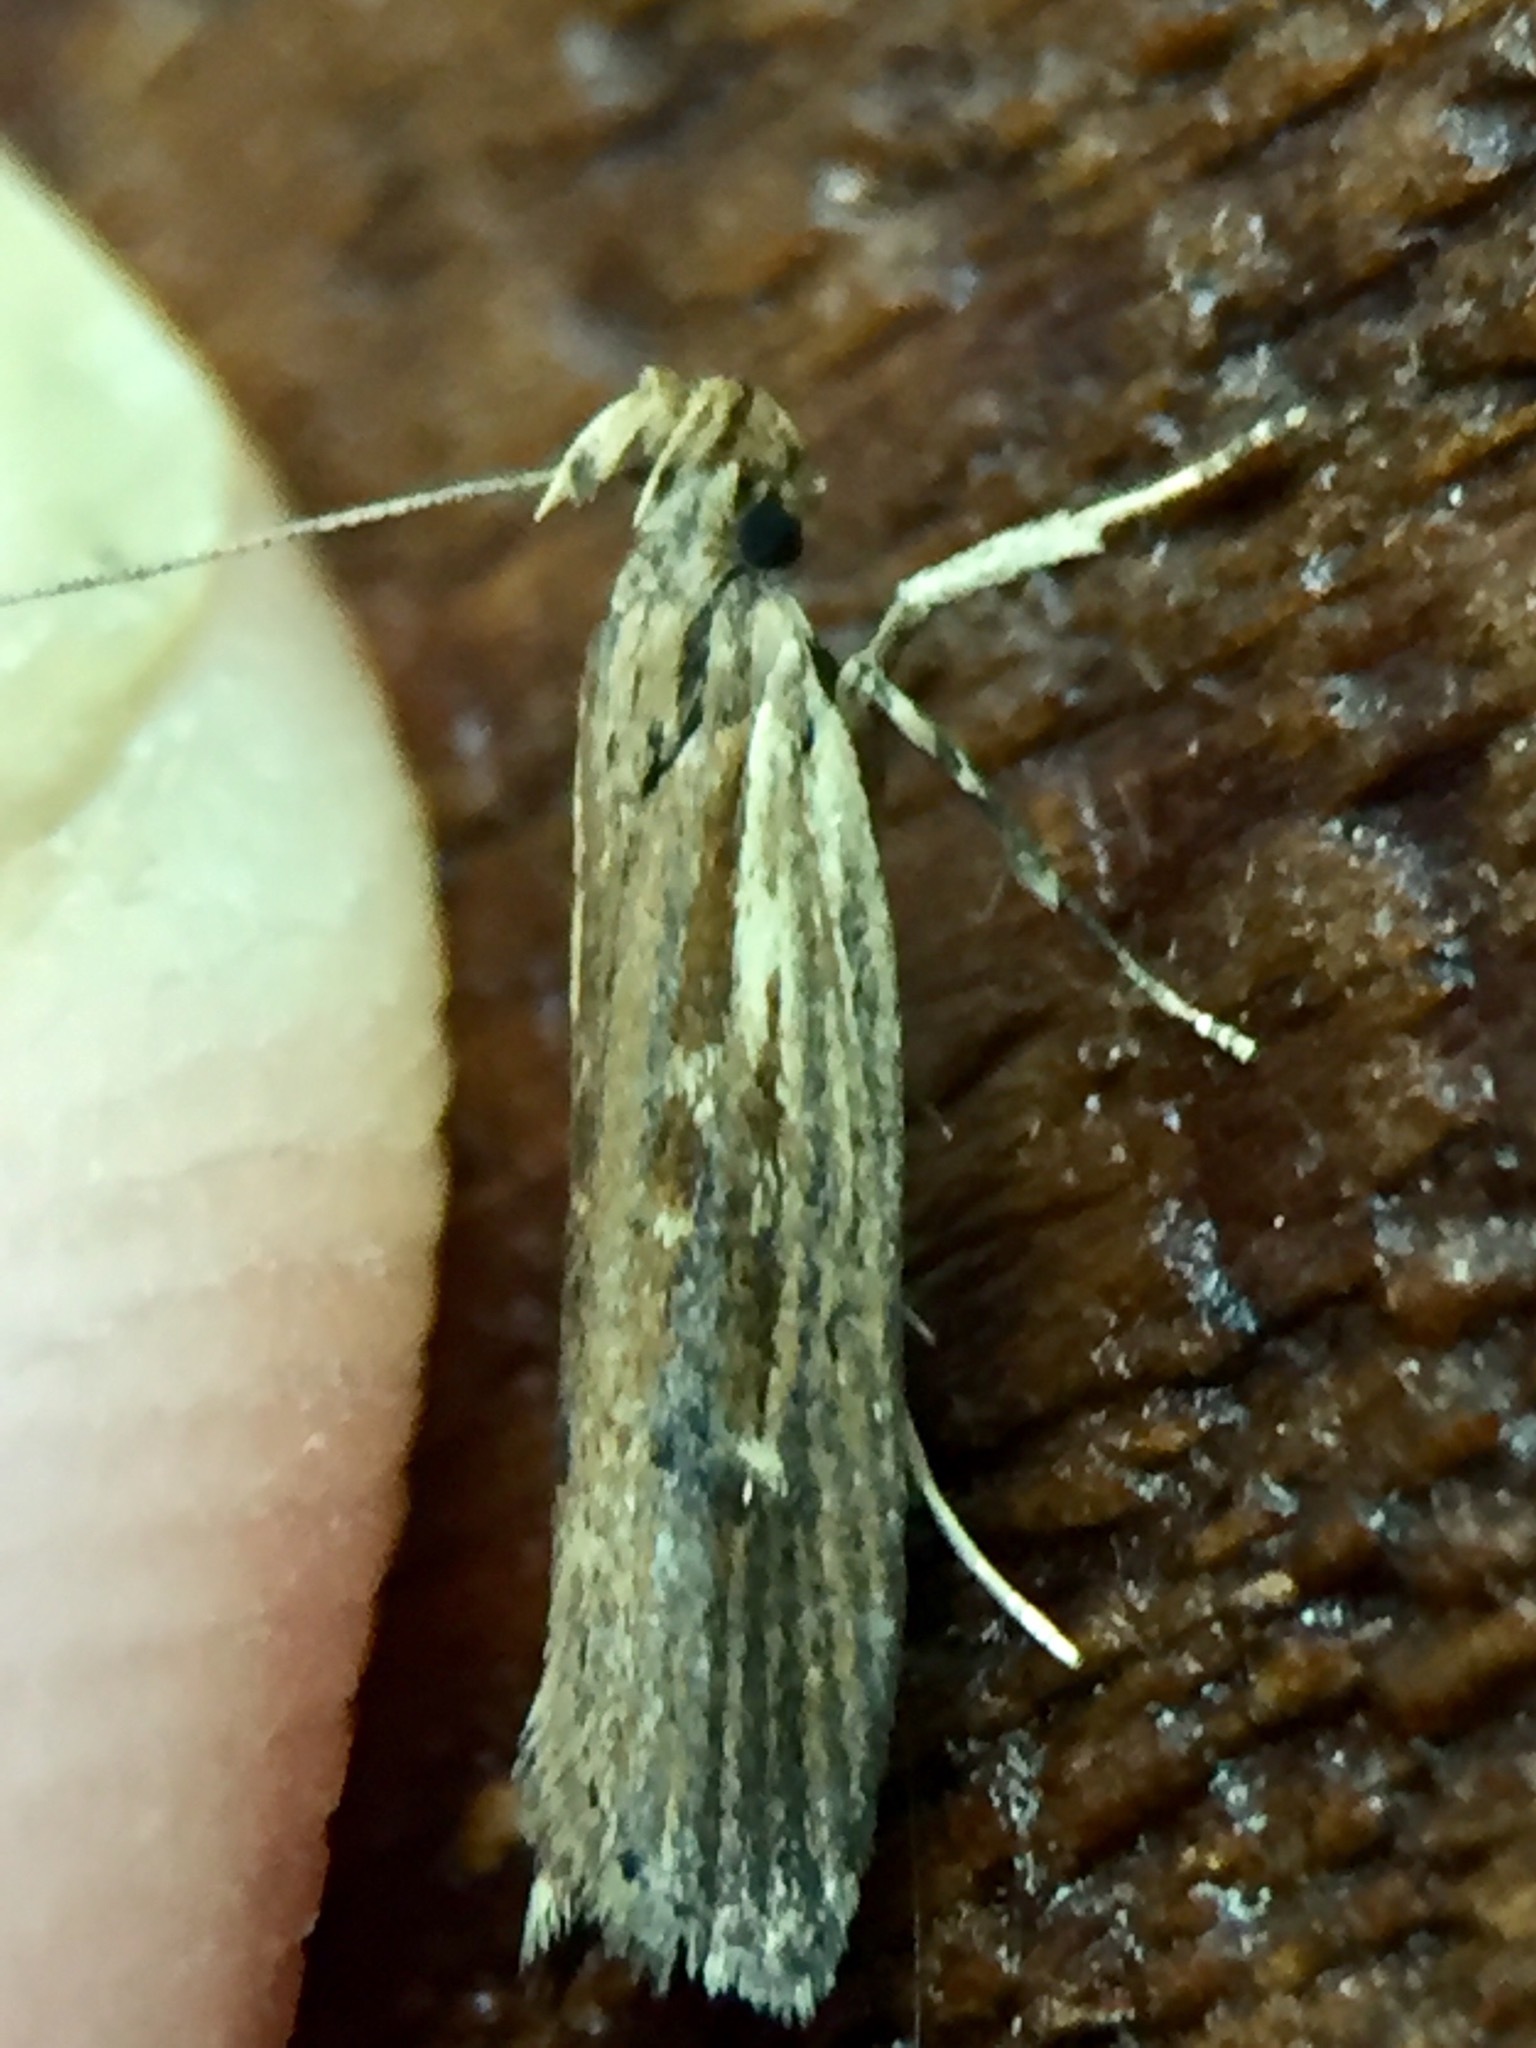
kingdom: Animalia
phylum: Arthropoda
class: Insecta
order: Lepidoptera
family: Gelechiidae
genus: Helcystogramma
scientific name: Helcystogramma phryganitis
